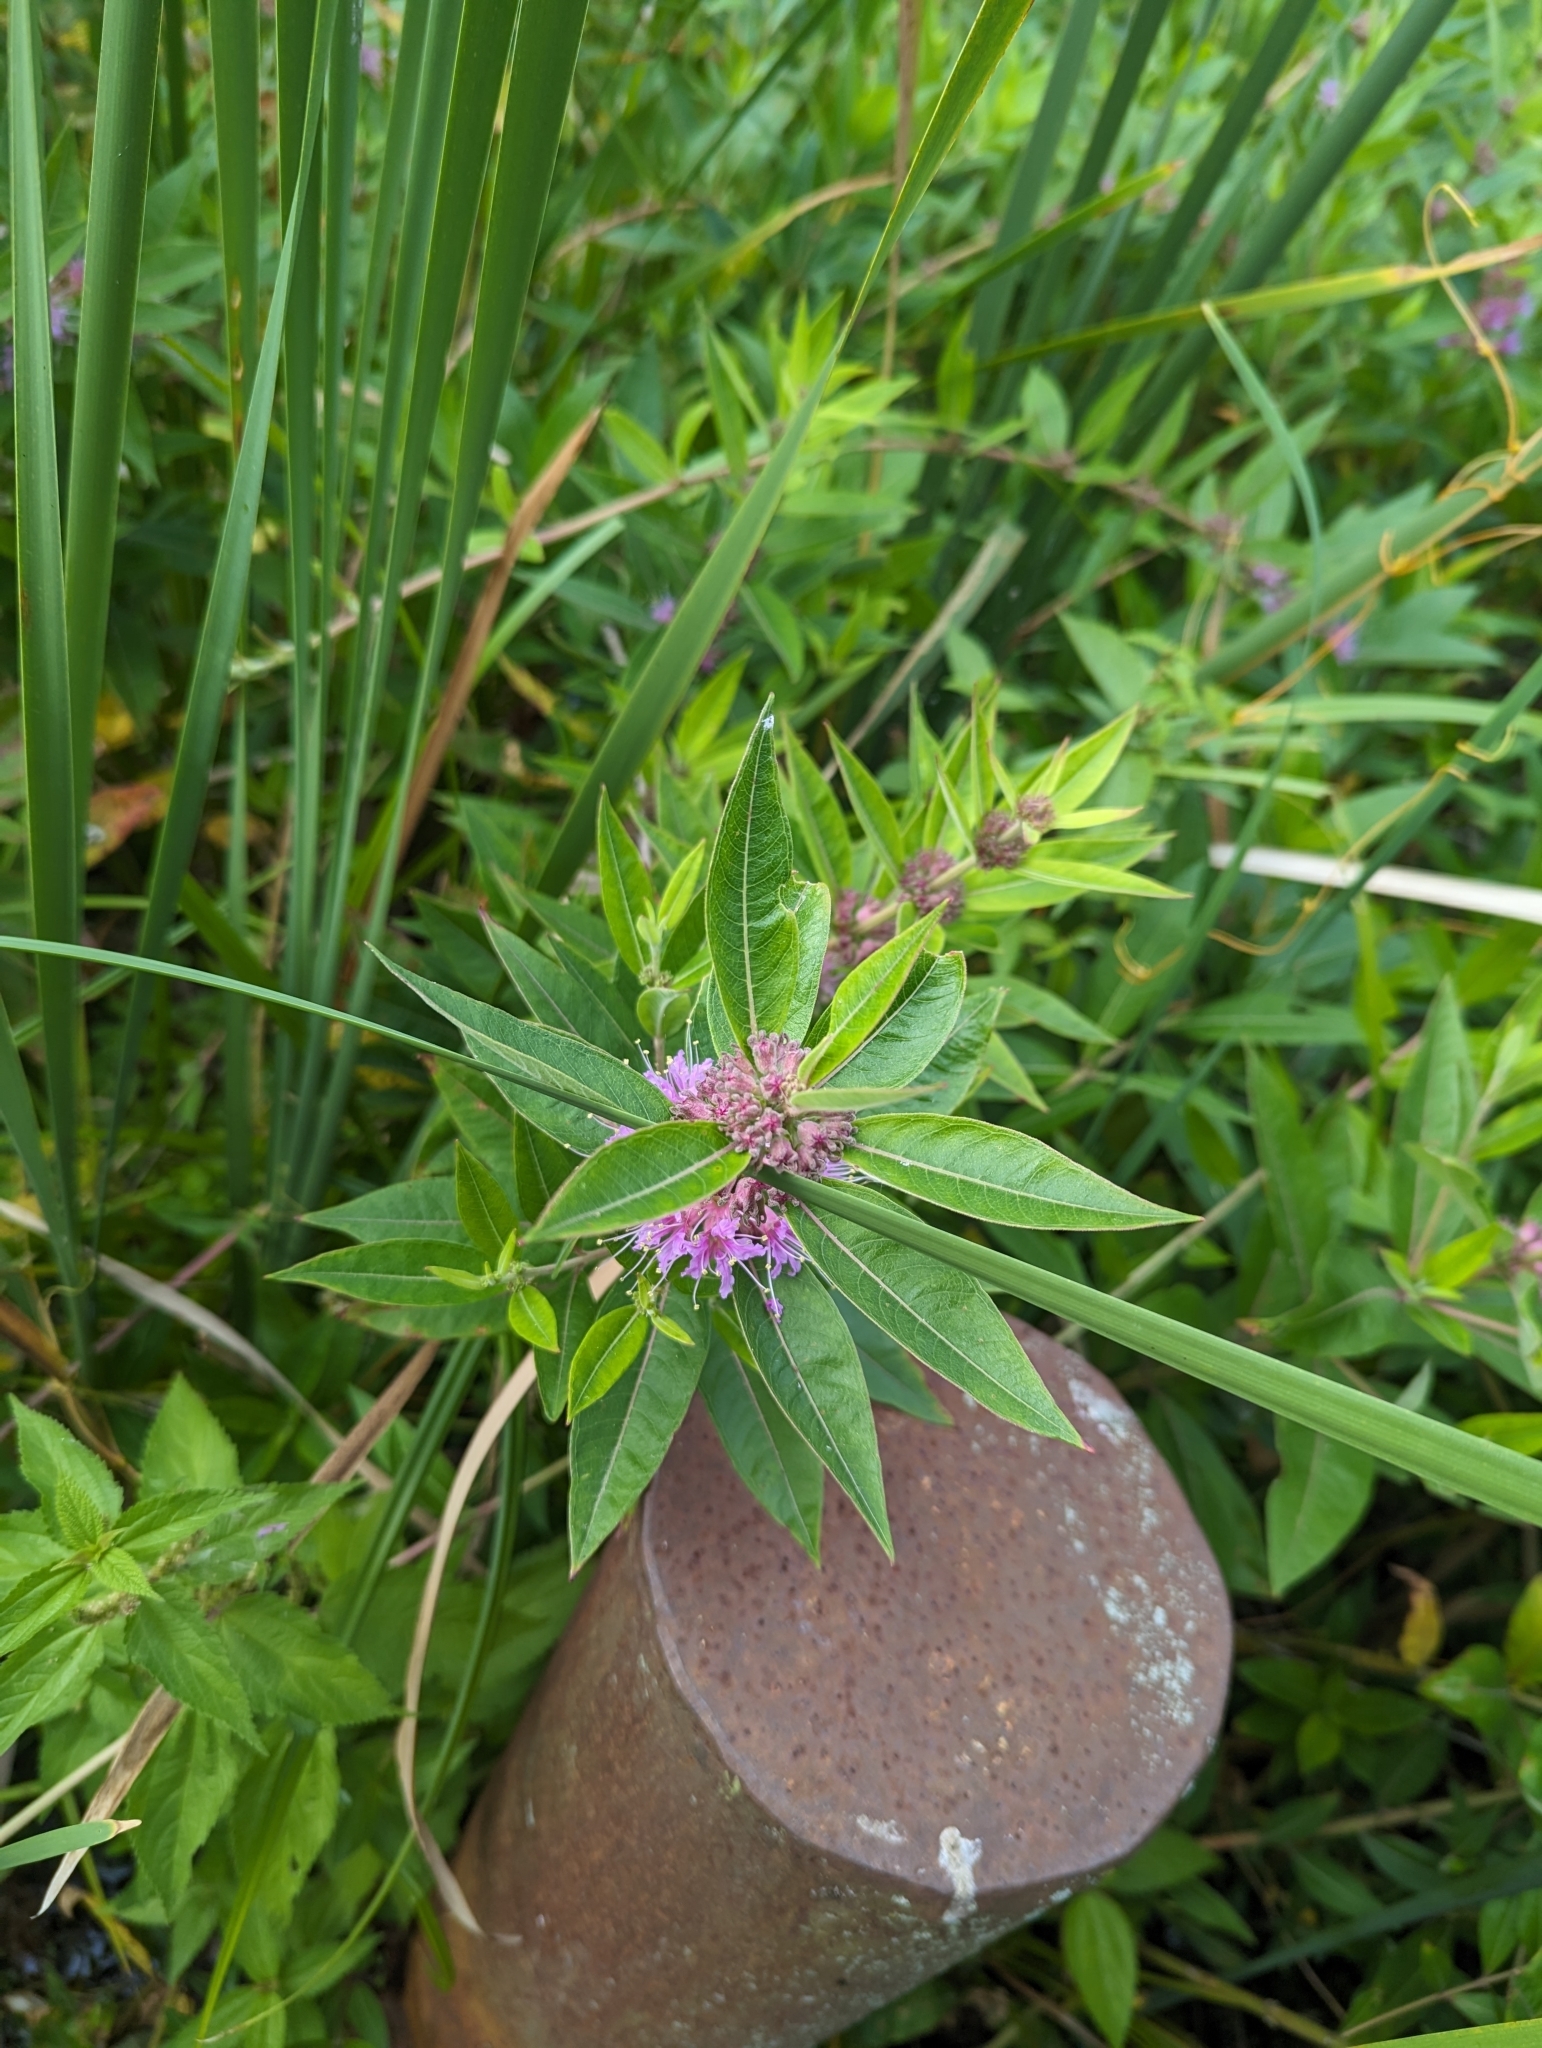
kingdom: Plantae
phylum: Tracheophyta
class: Magnoliopsida
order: Myrtales
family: Lythraceae
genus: Decodon
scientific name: Decodon verticillatus
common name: Hairy swamp loosestrife
